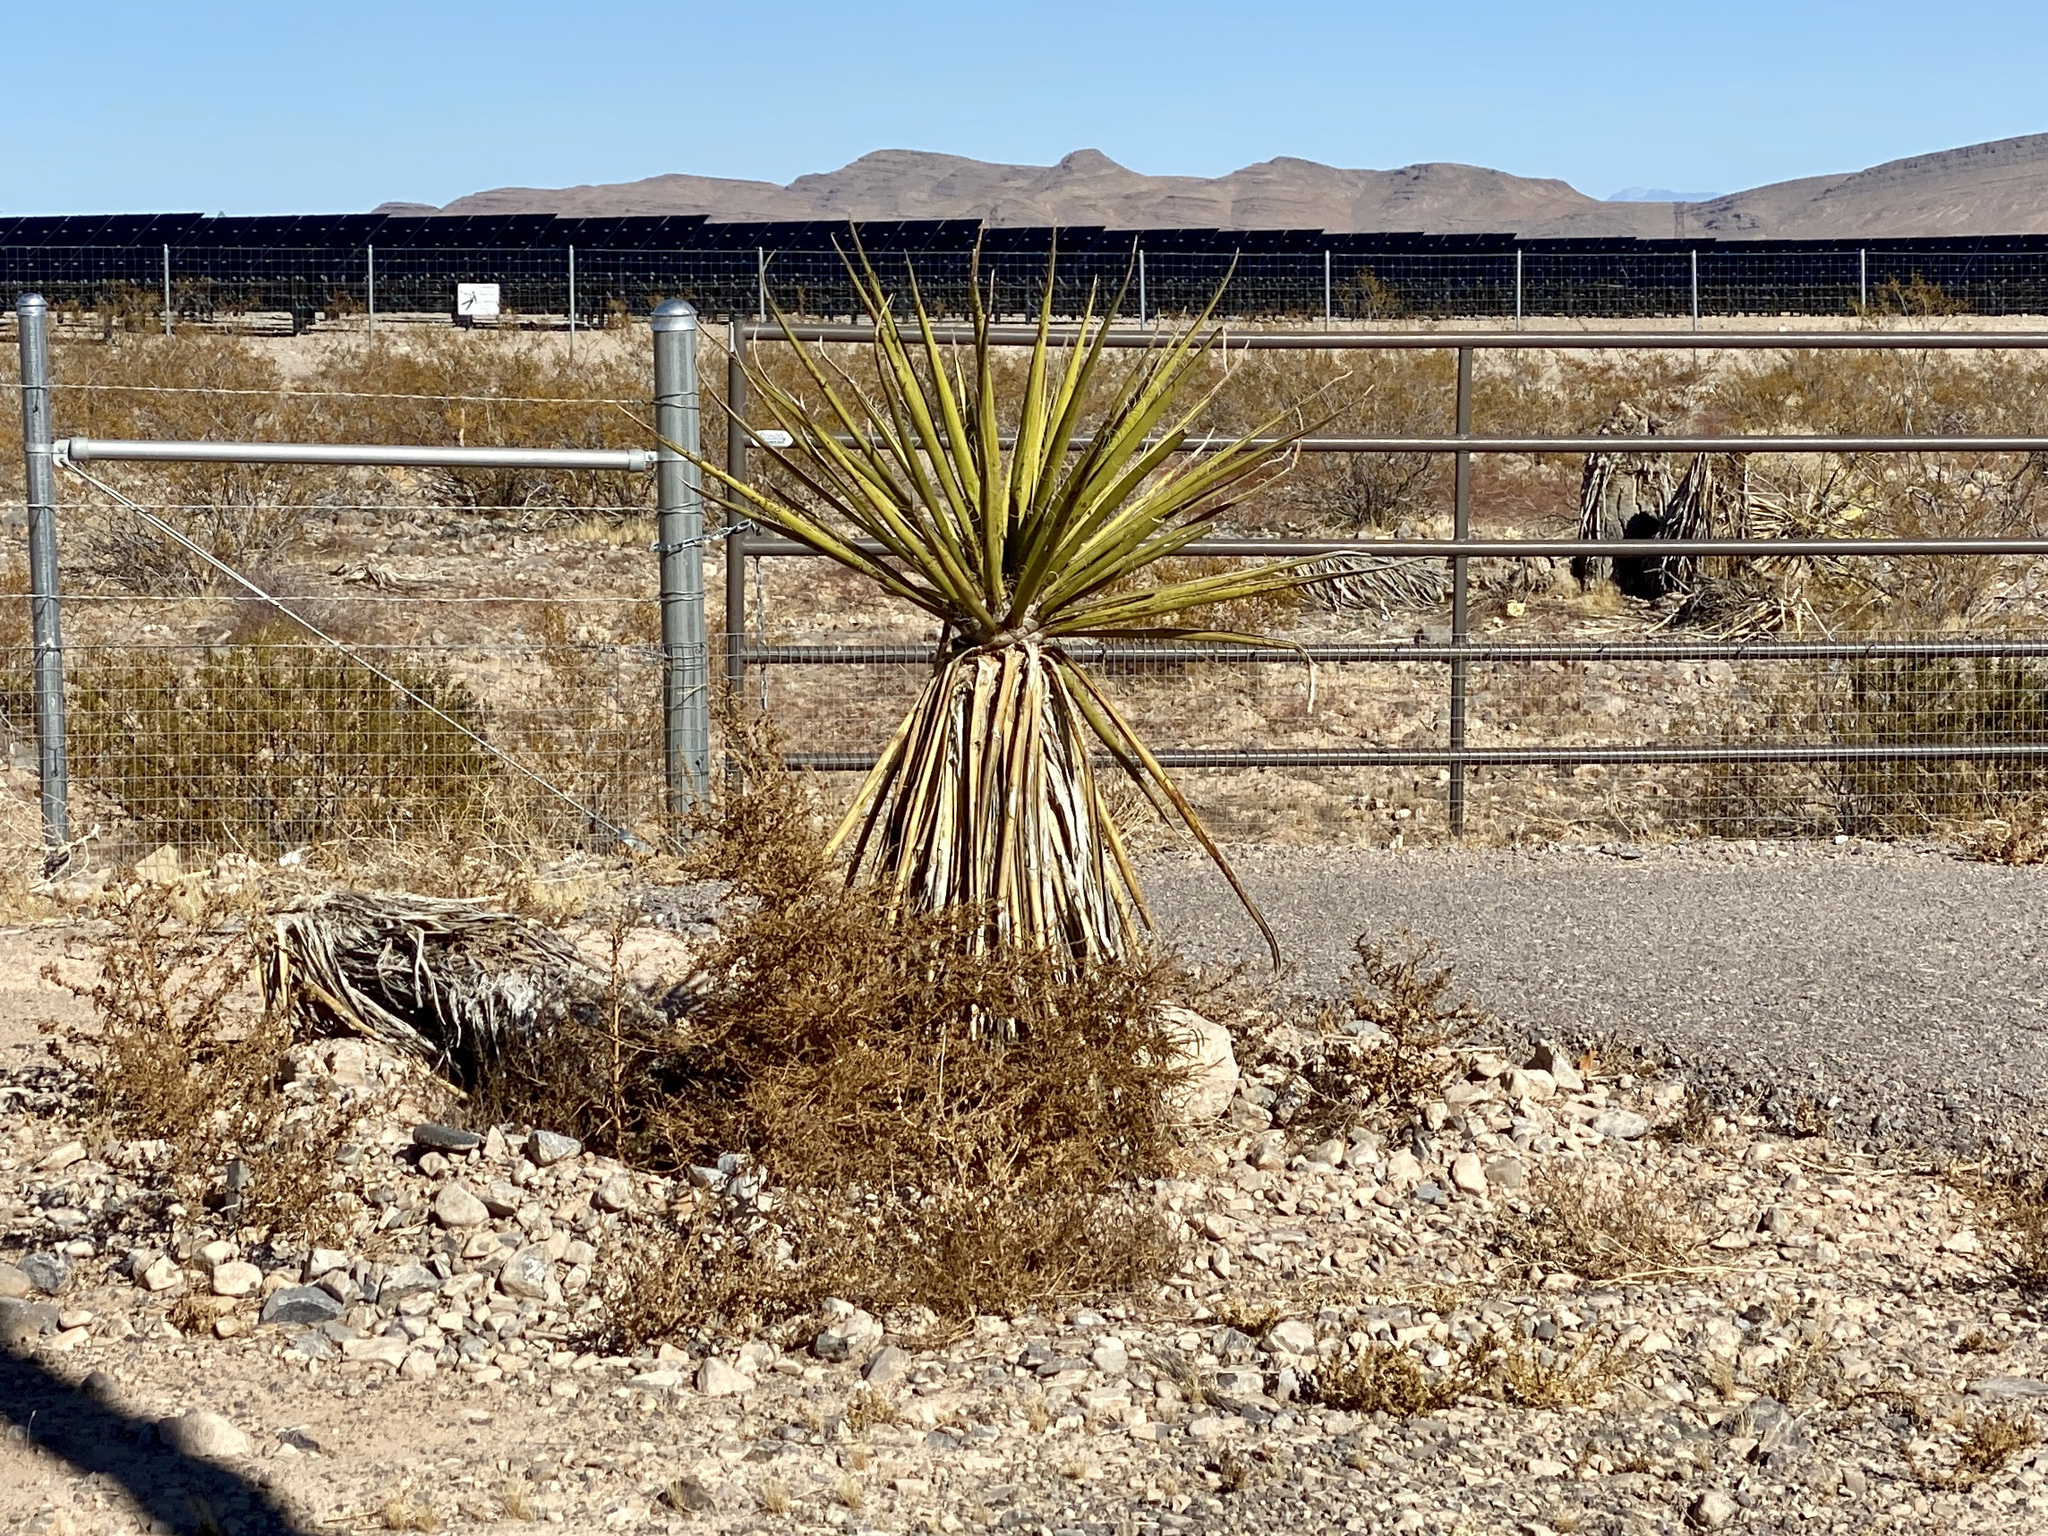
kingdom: Plantae
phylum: Tracheophyta
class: Liliopsida
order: Asparagales
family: Asparagaceae
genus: Yucca
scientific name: Yucca schidigera
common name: Mojave yucca
